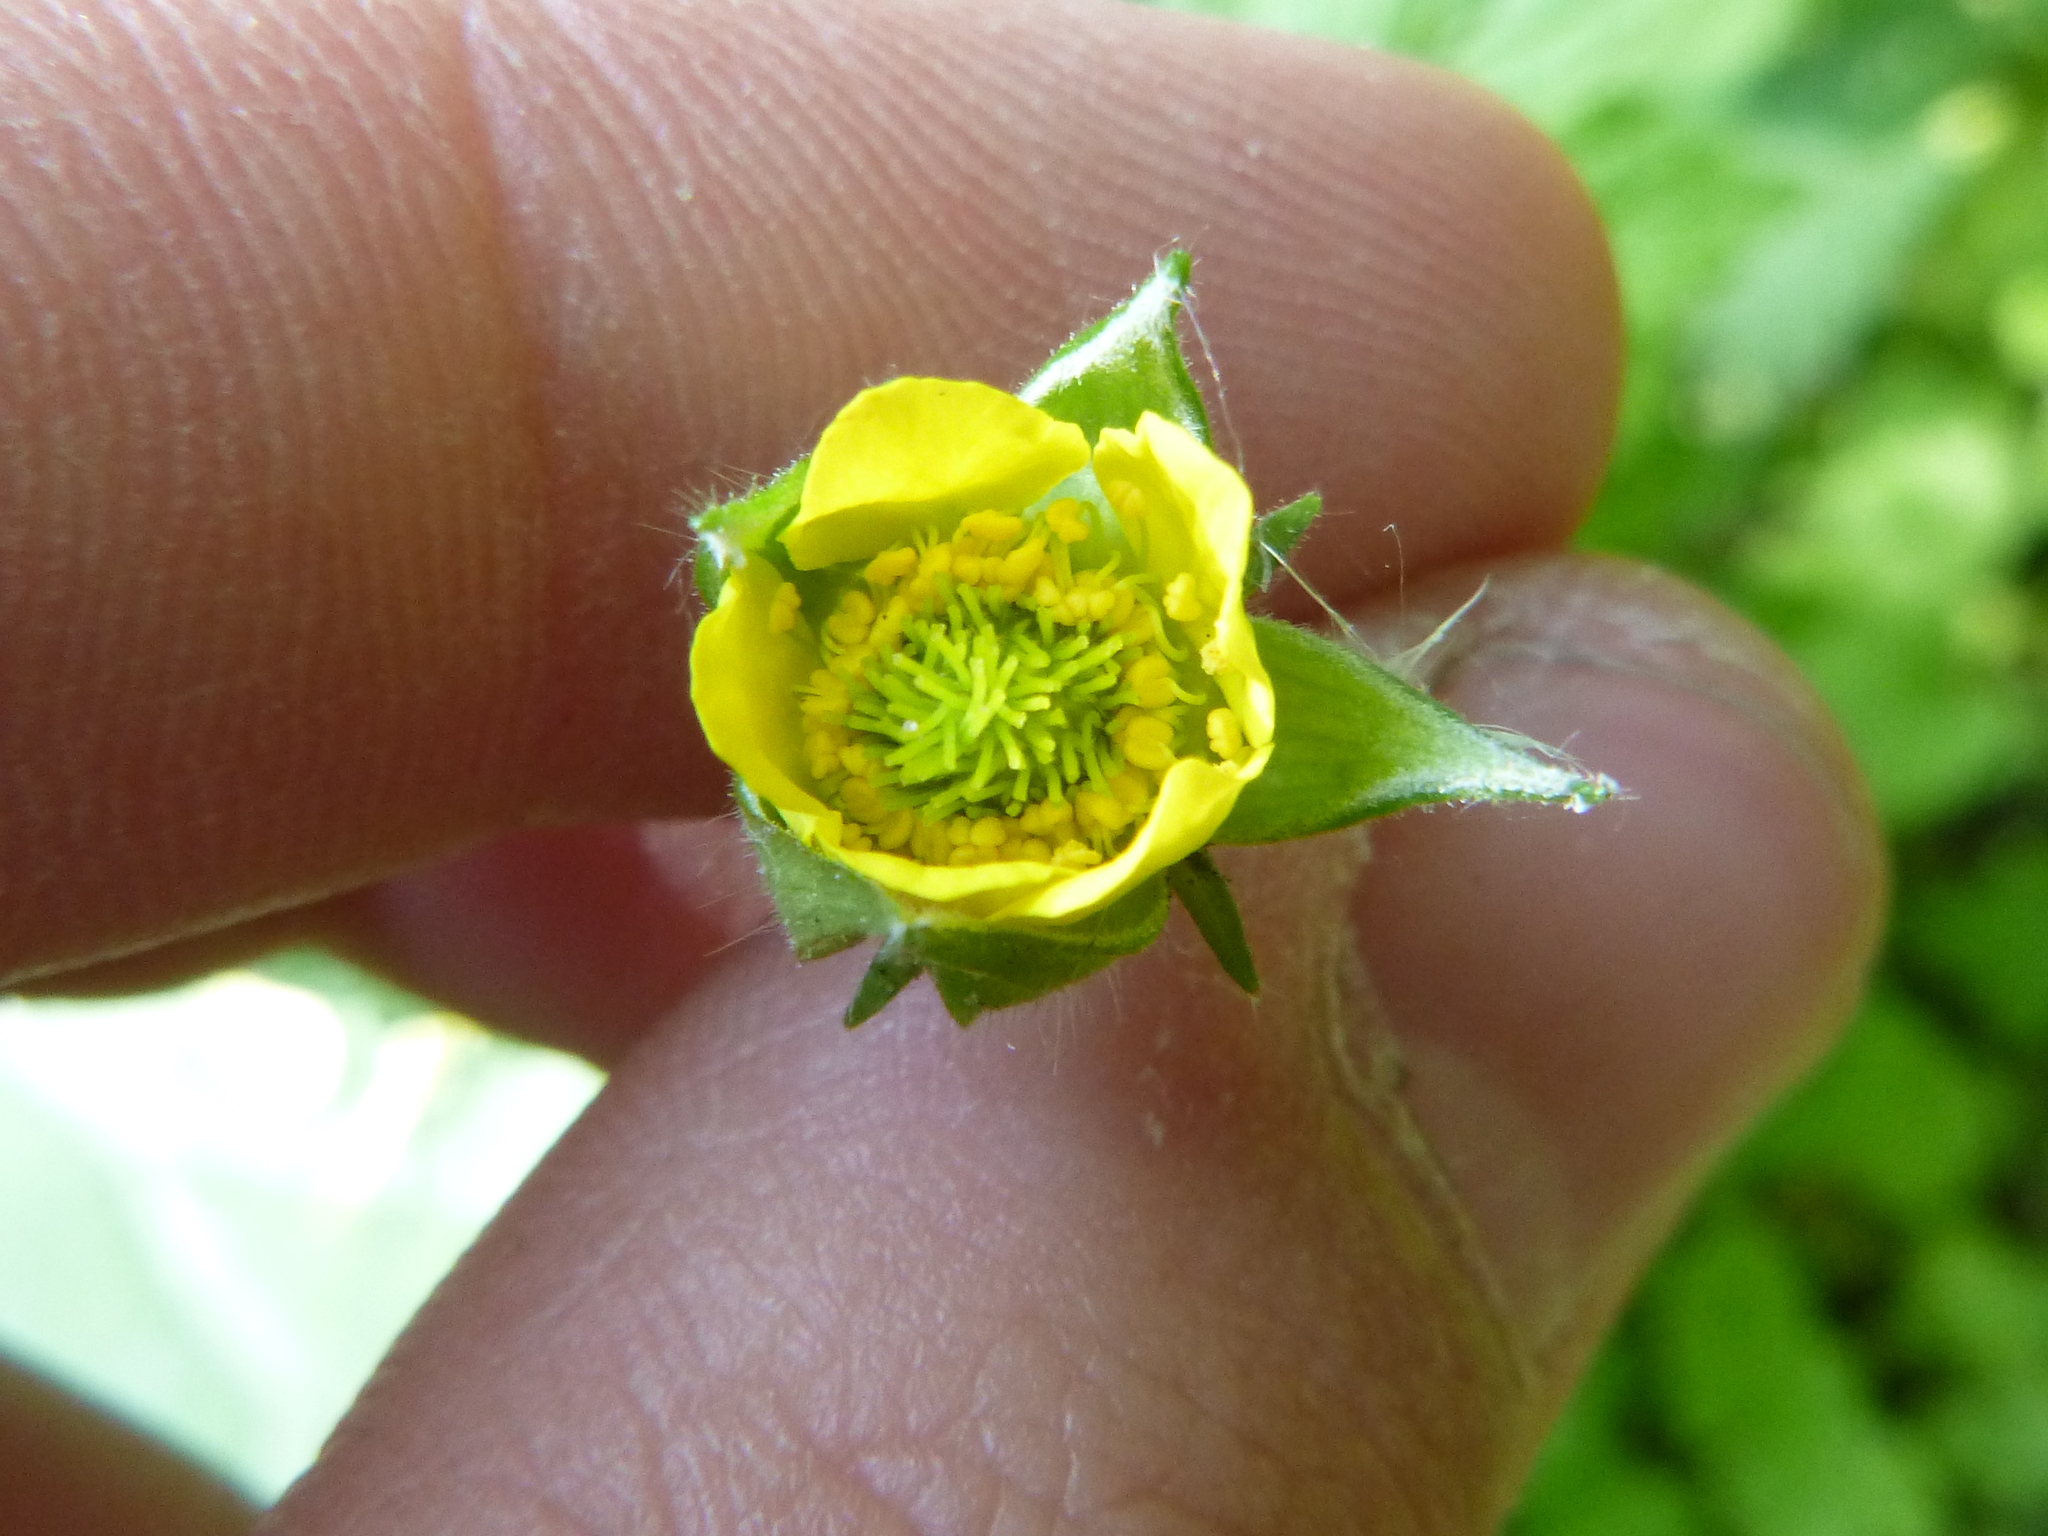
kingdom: Plantae
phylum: Tracheophyta
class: Magnoliopsida
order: Rosales
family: Rosaceae
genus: Geum
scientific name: Geum urbanum
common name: Wood avens
